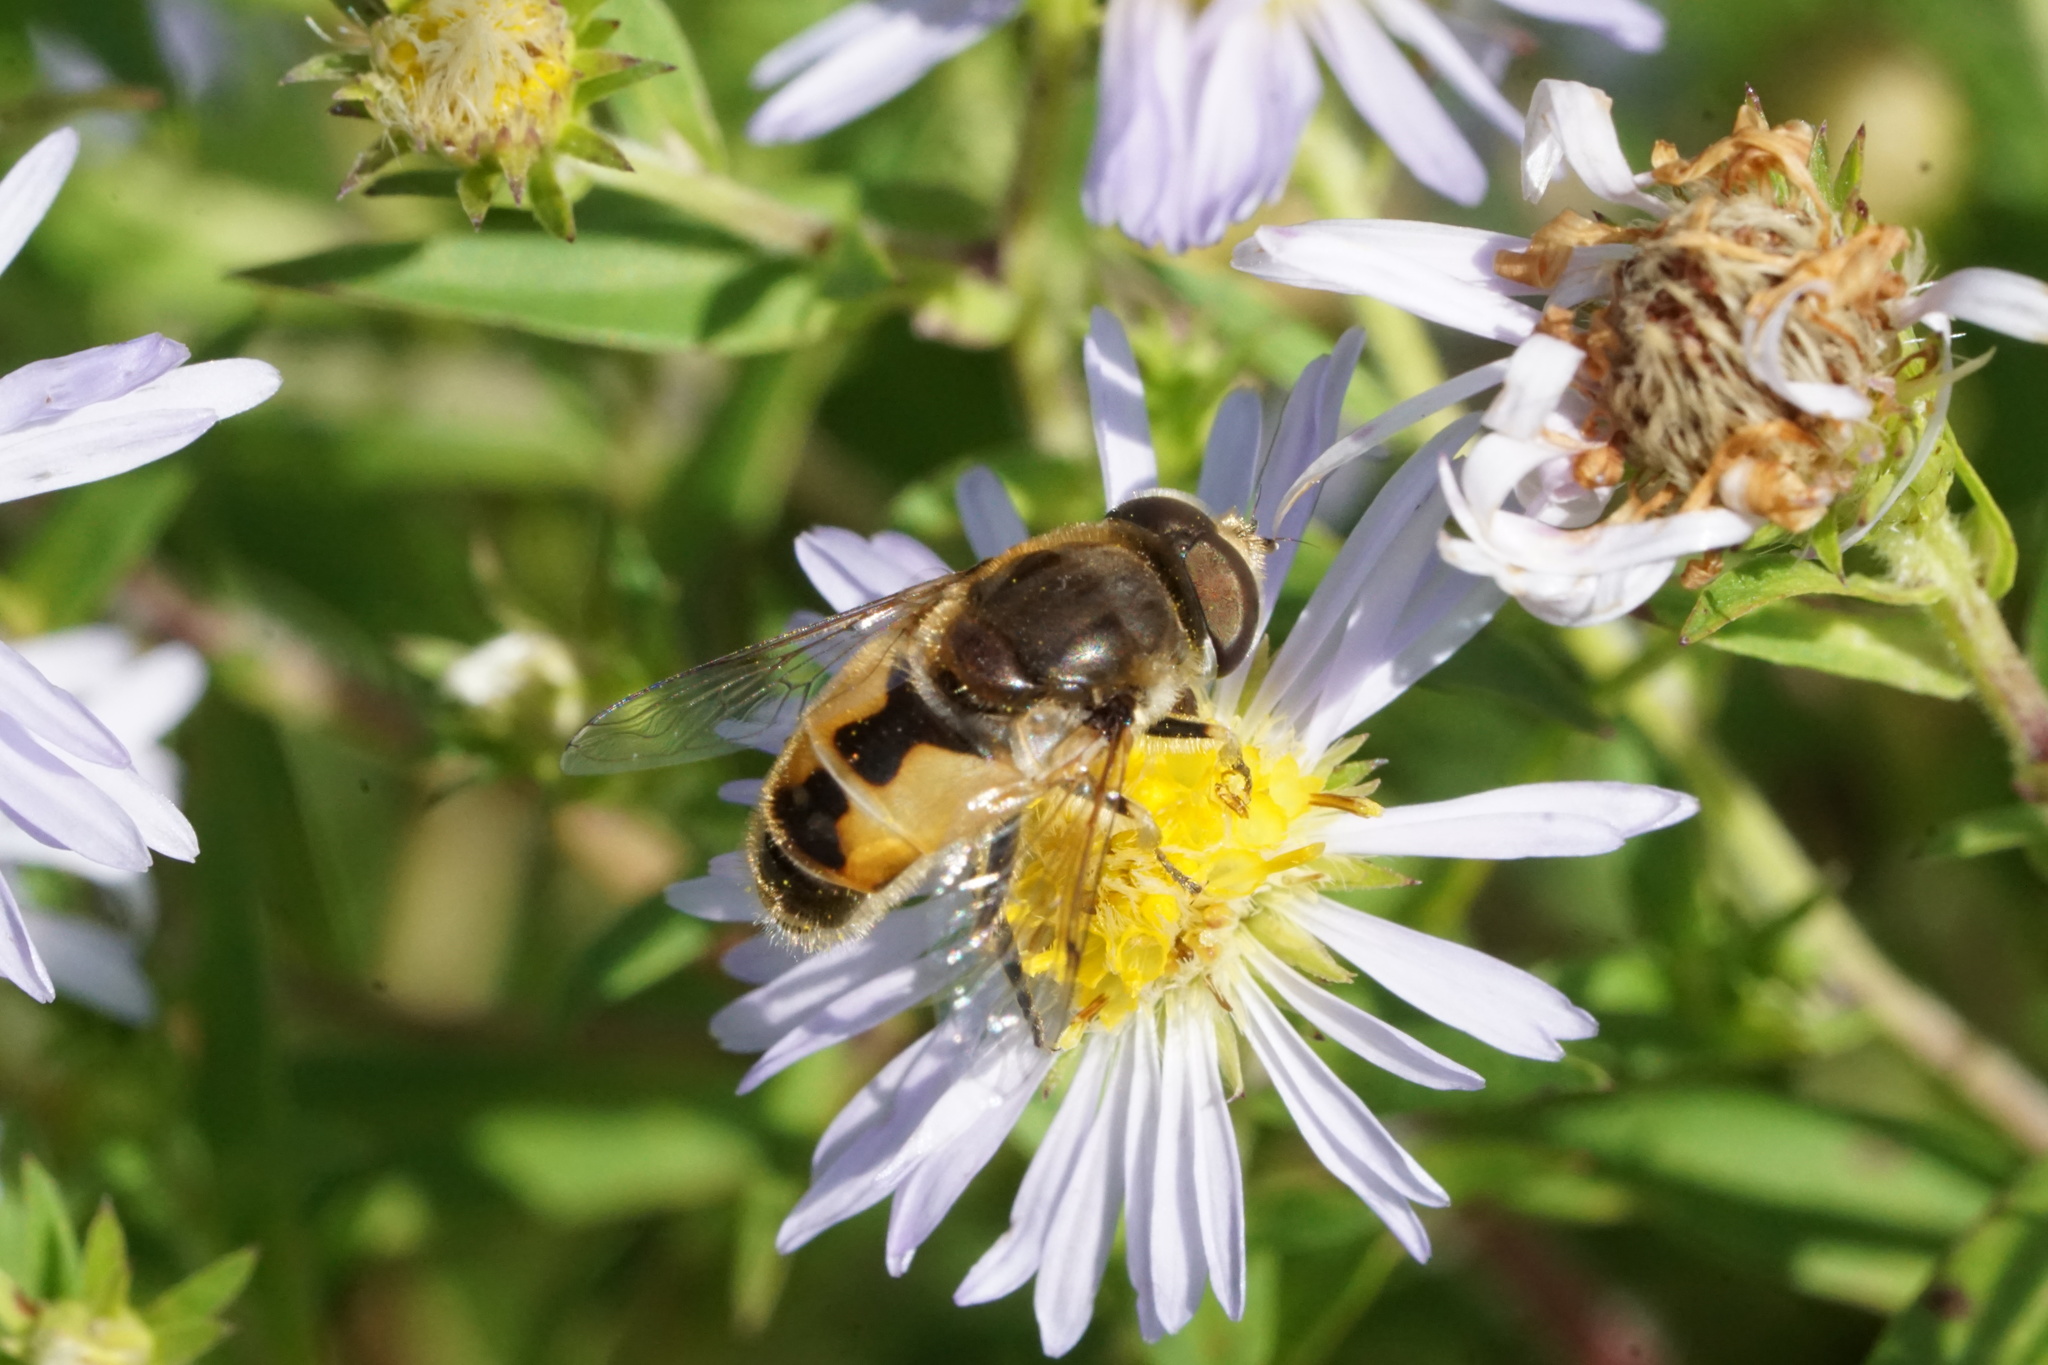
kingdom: Animalia
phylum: Arthropoda
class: Insecta
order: Diptera
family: Syrphidae
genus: Eristalis
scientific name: Eristalis arbustorum
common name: Hover fly
